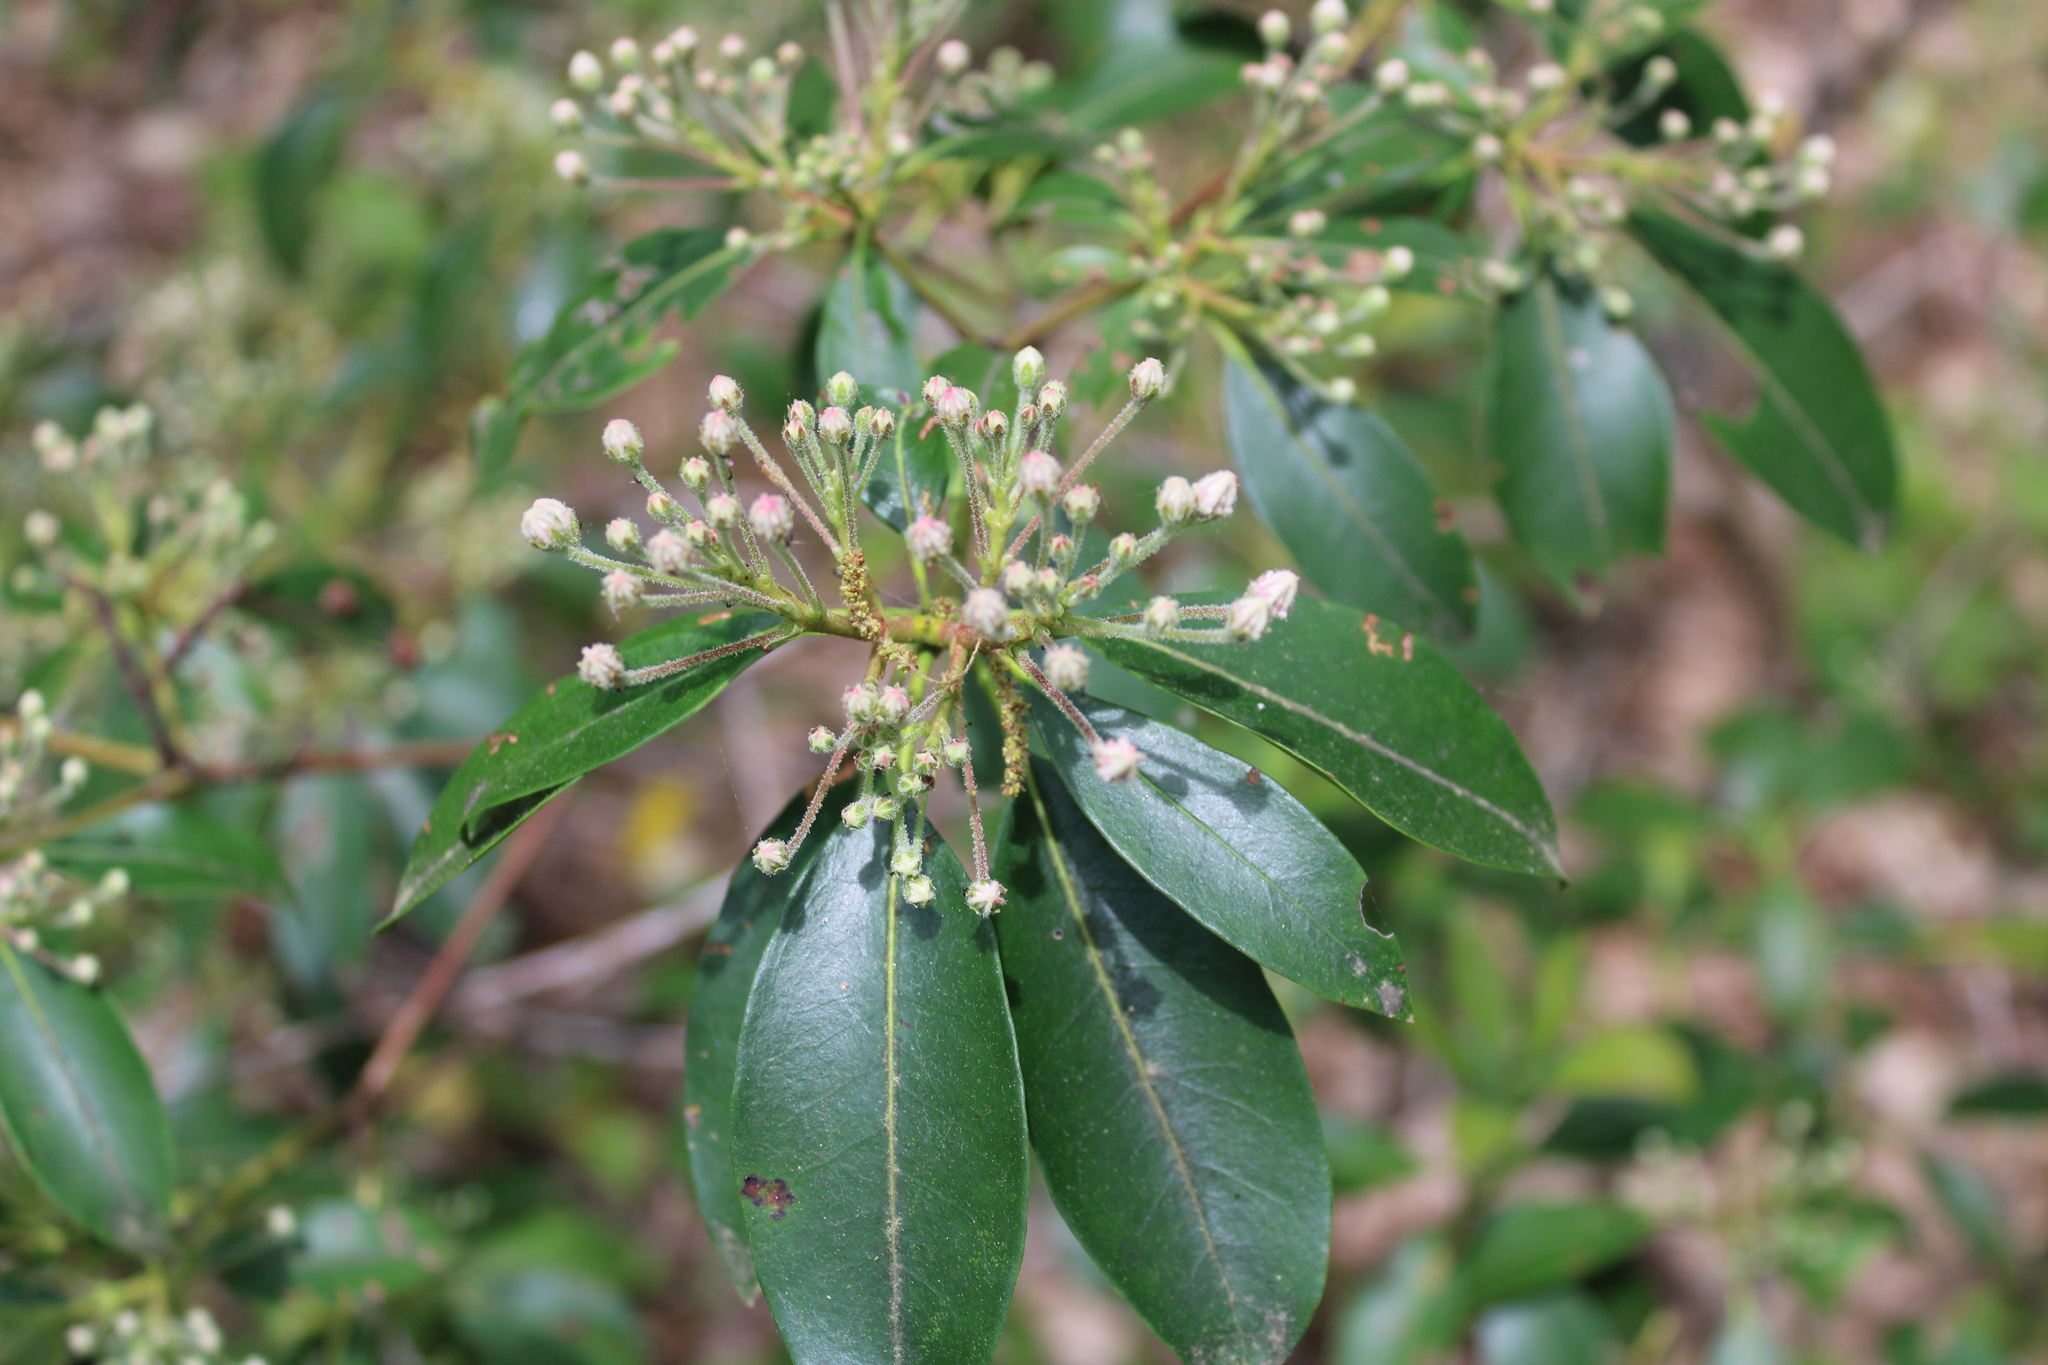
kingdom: Plantae
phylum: Tracheophyta
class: Magnoliopsida
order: Ericales
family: Ericaceae
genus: Kalmia
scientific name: Kalmia latifolia
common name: Mountain-laurel
